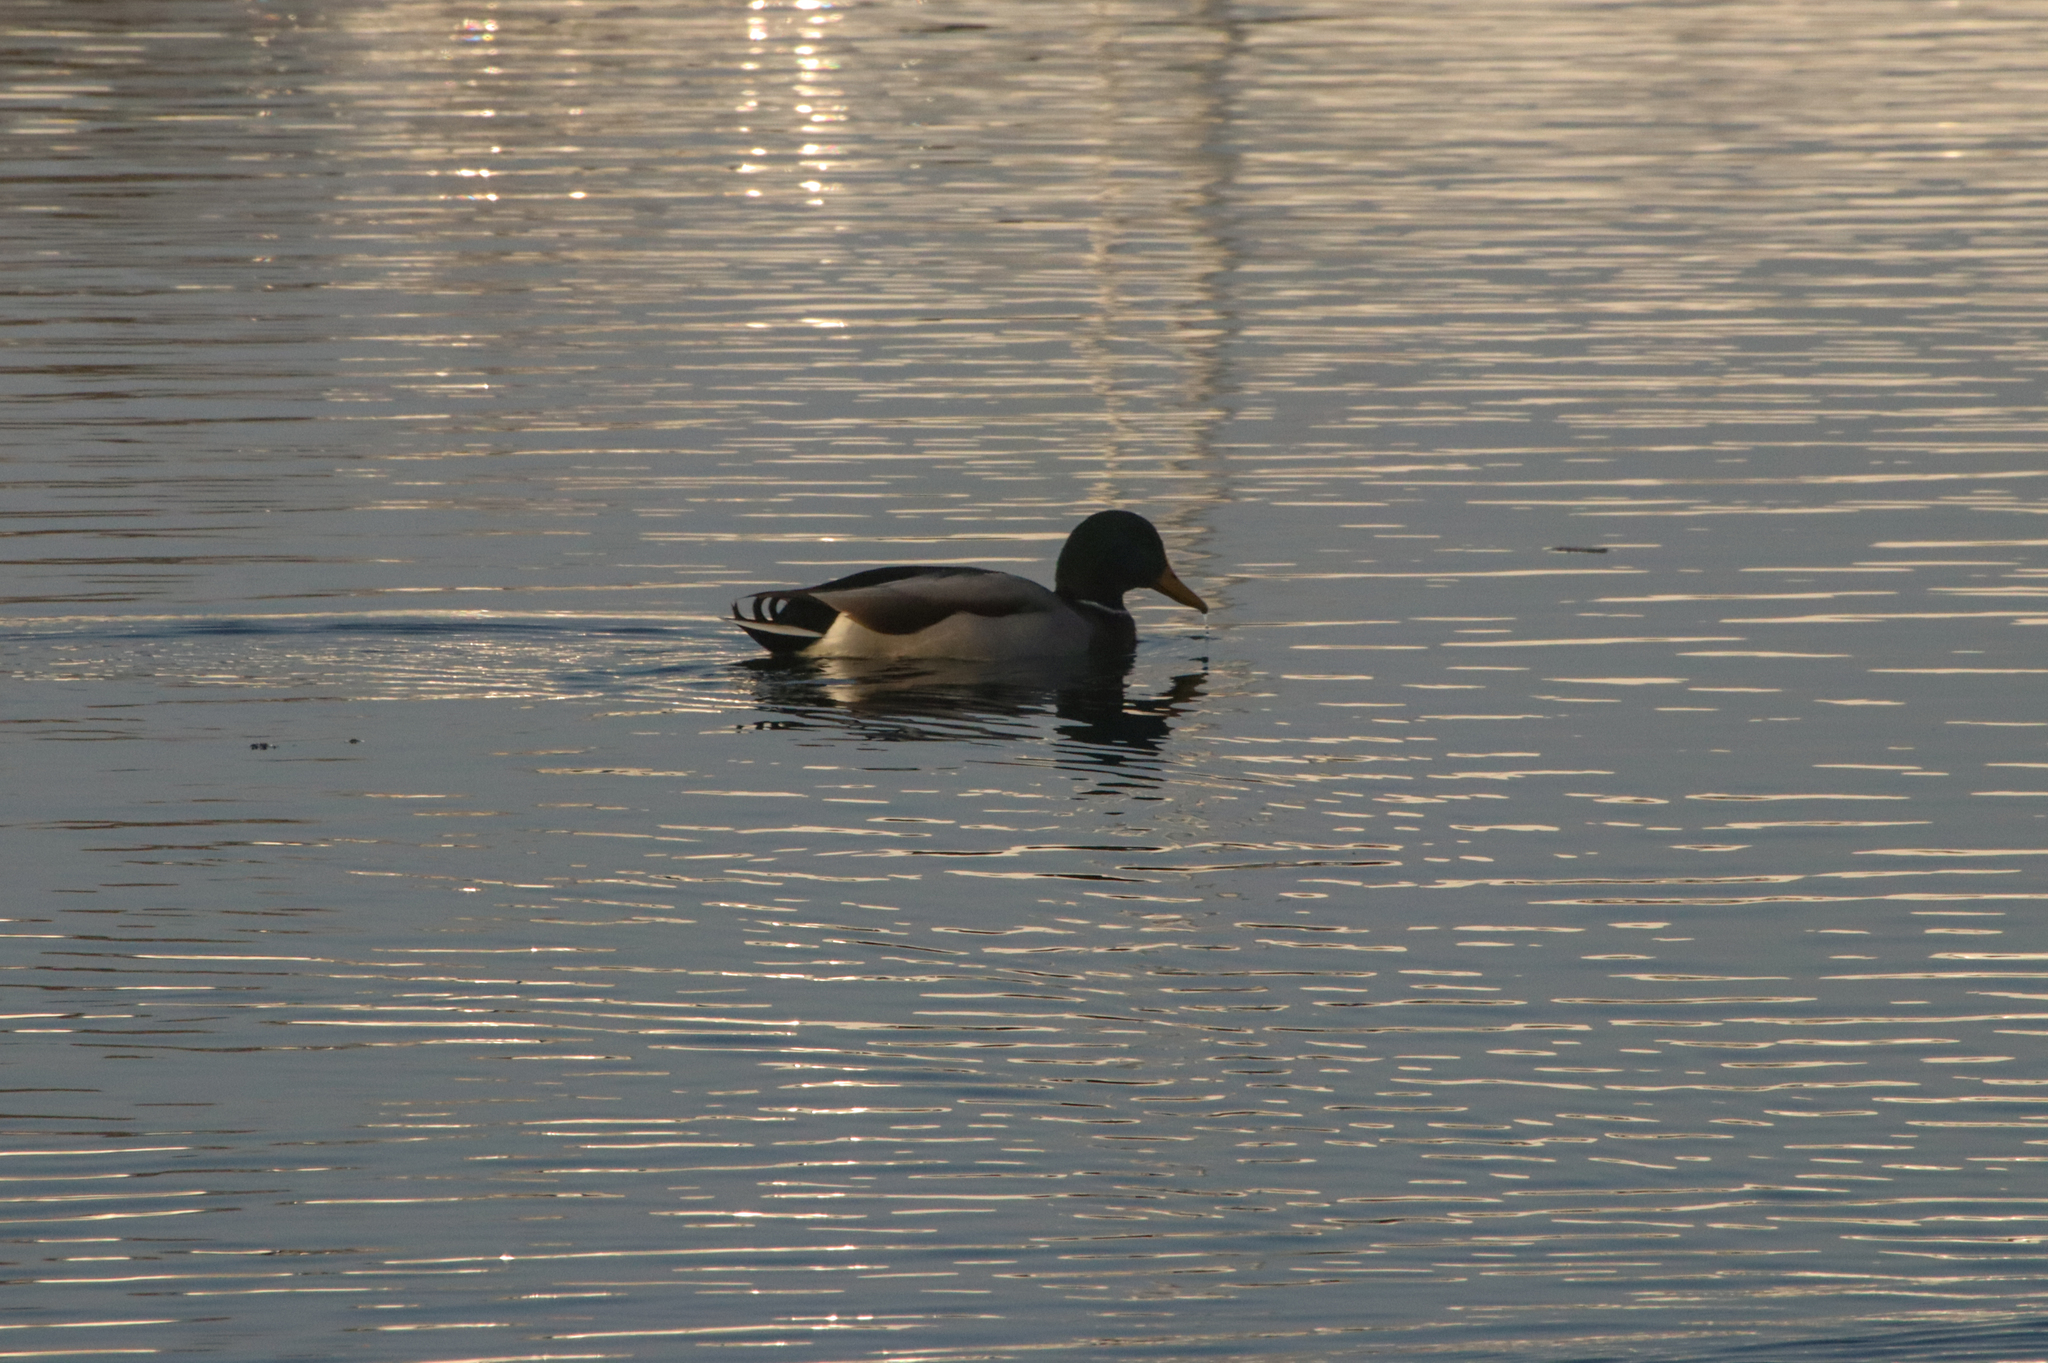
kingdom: Animalia
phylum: Chordata
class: Aves
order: Anseriformes
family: Anatidae
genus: Anas
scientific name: Anas platyrhynchos
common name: Mallard
